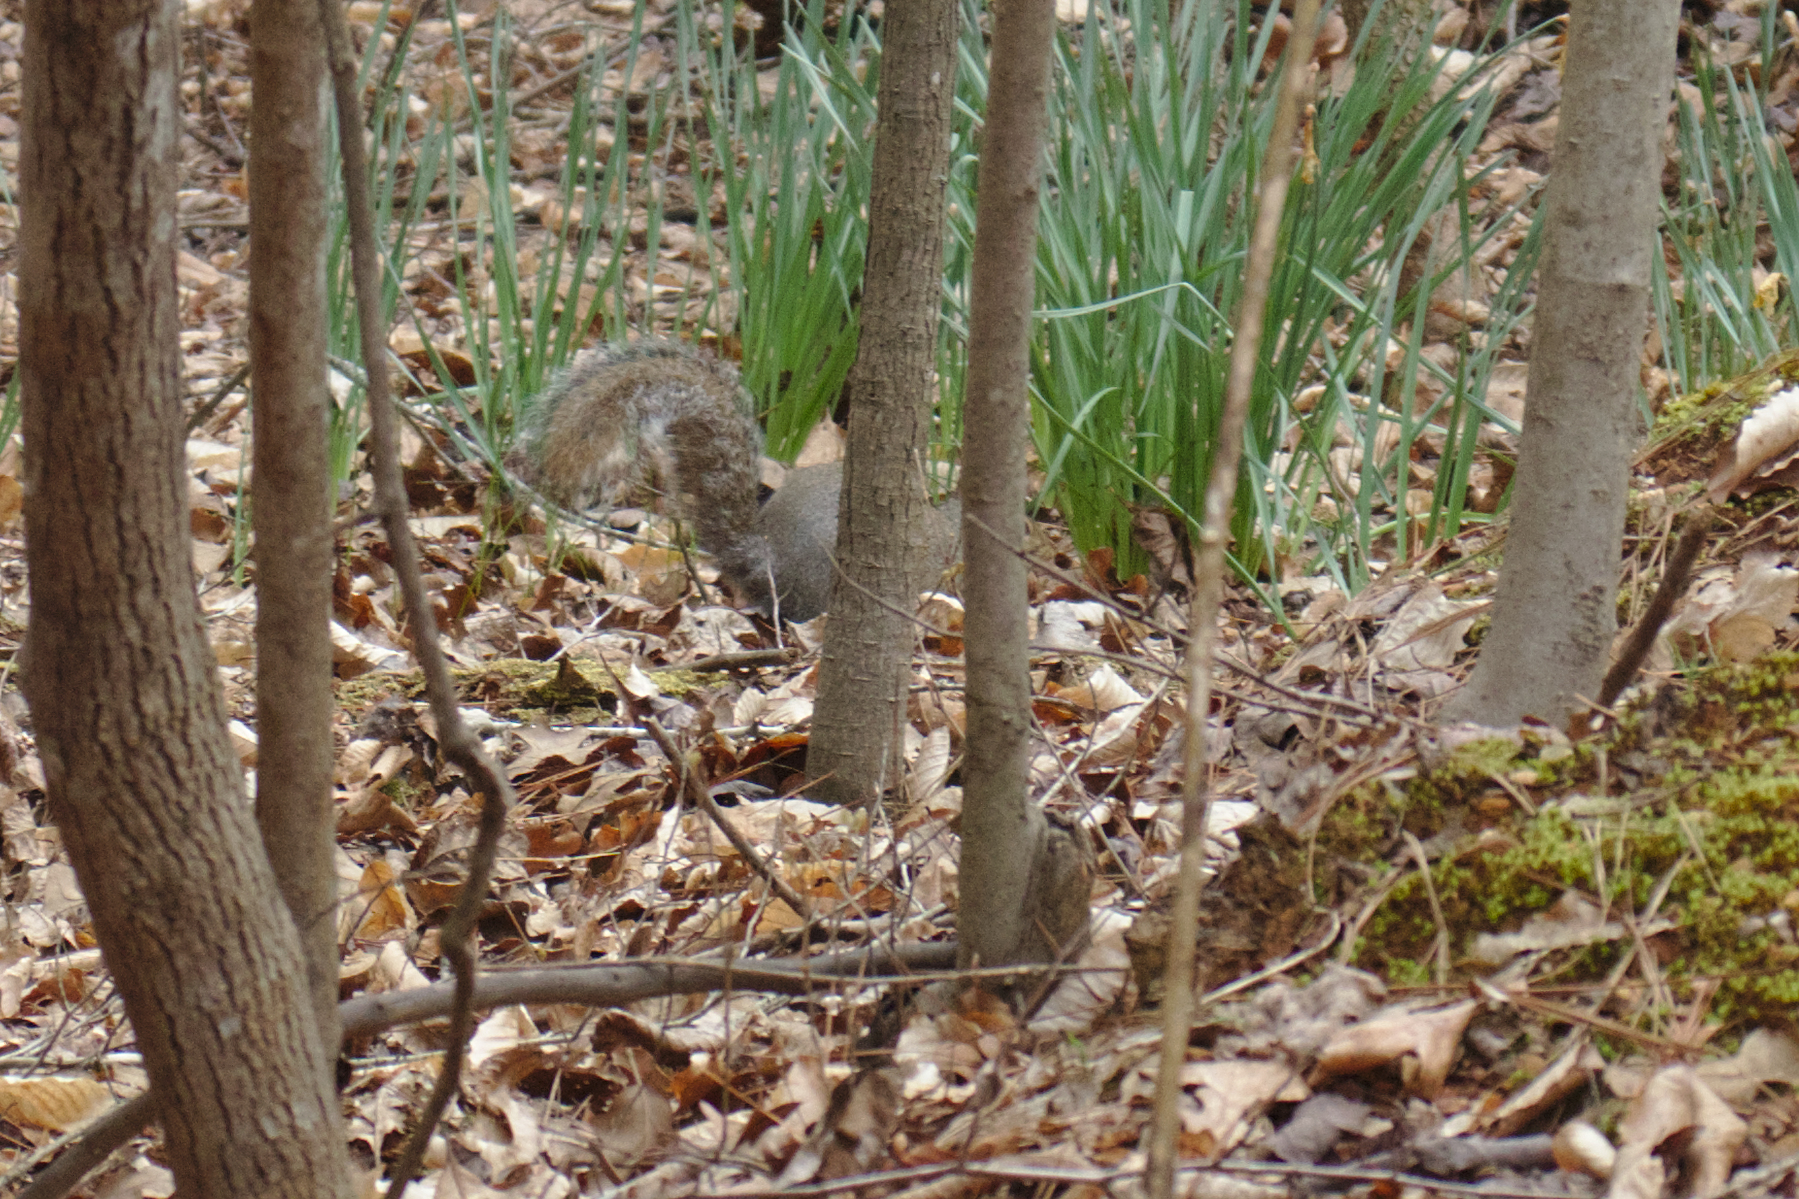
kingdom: Animalia
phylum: Chordata
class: Mammalia
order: Rodentia
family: Sciuridae
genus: Sciurus
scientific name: Sciurus carolinensis
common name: Eastern gray squirrel
